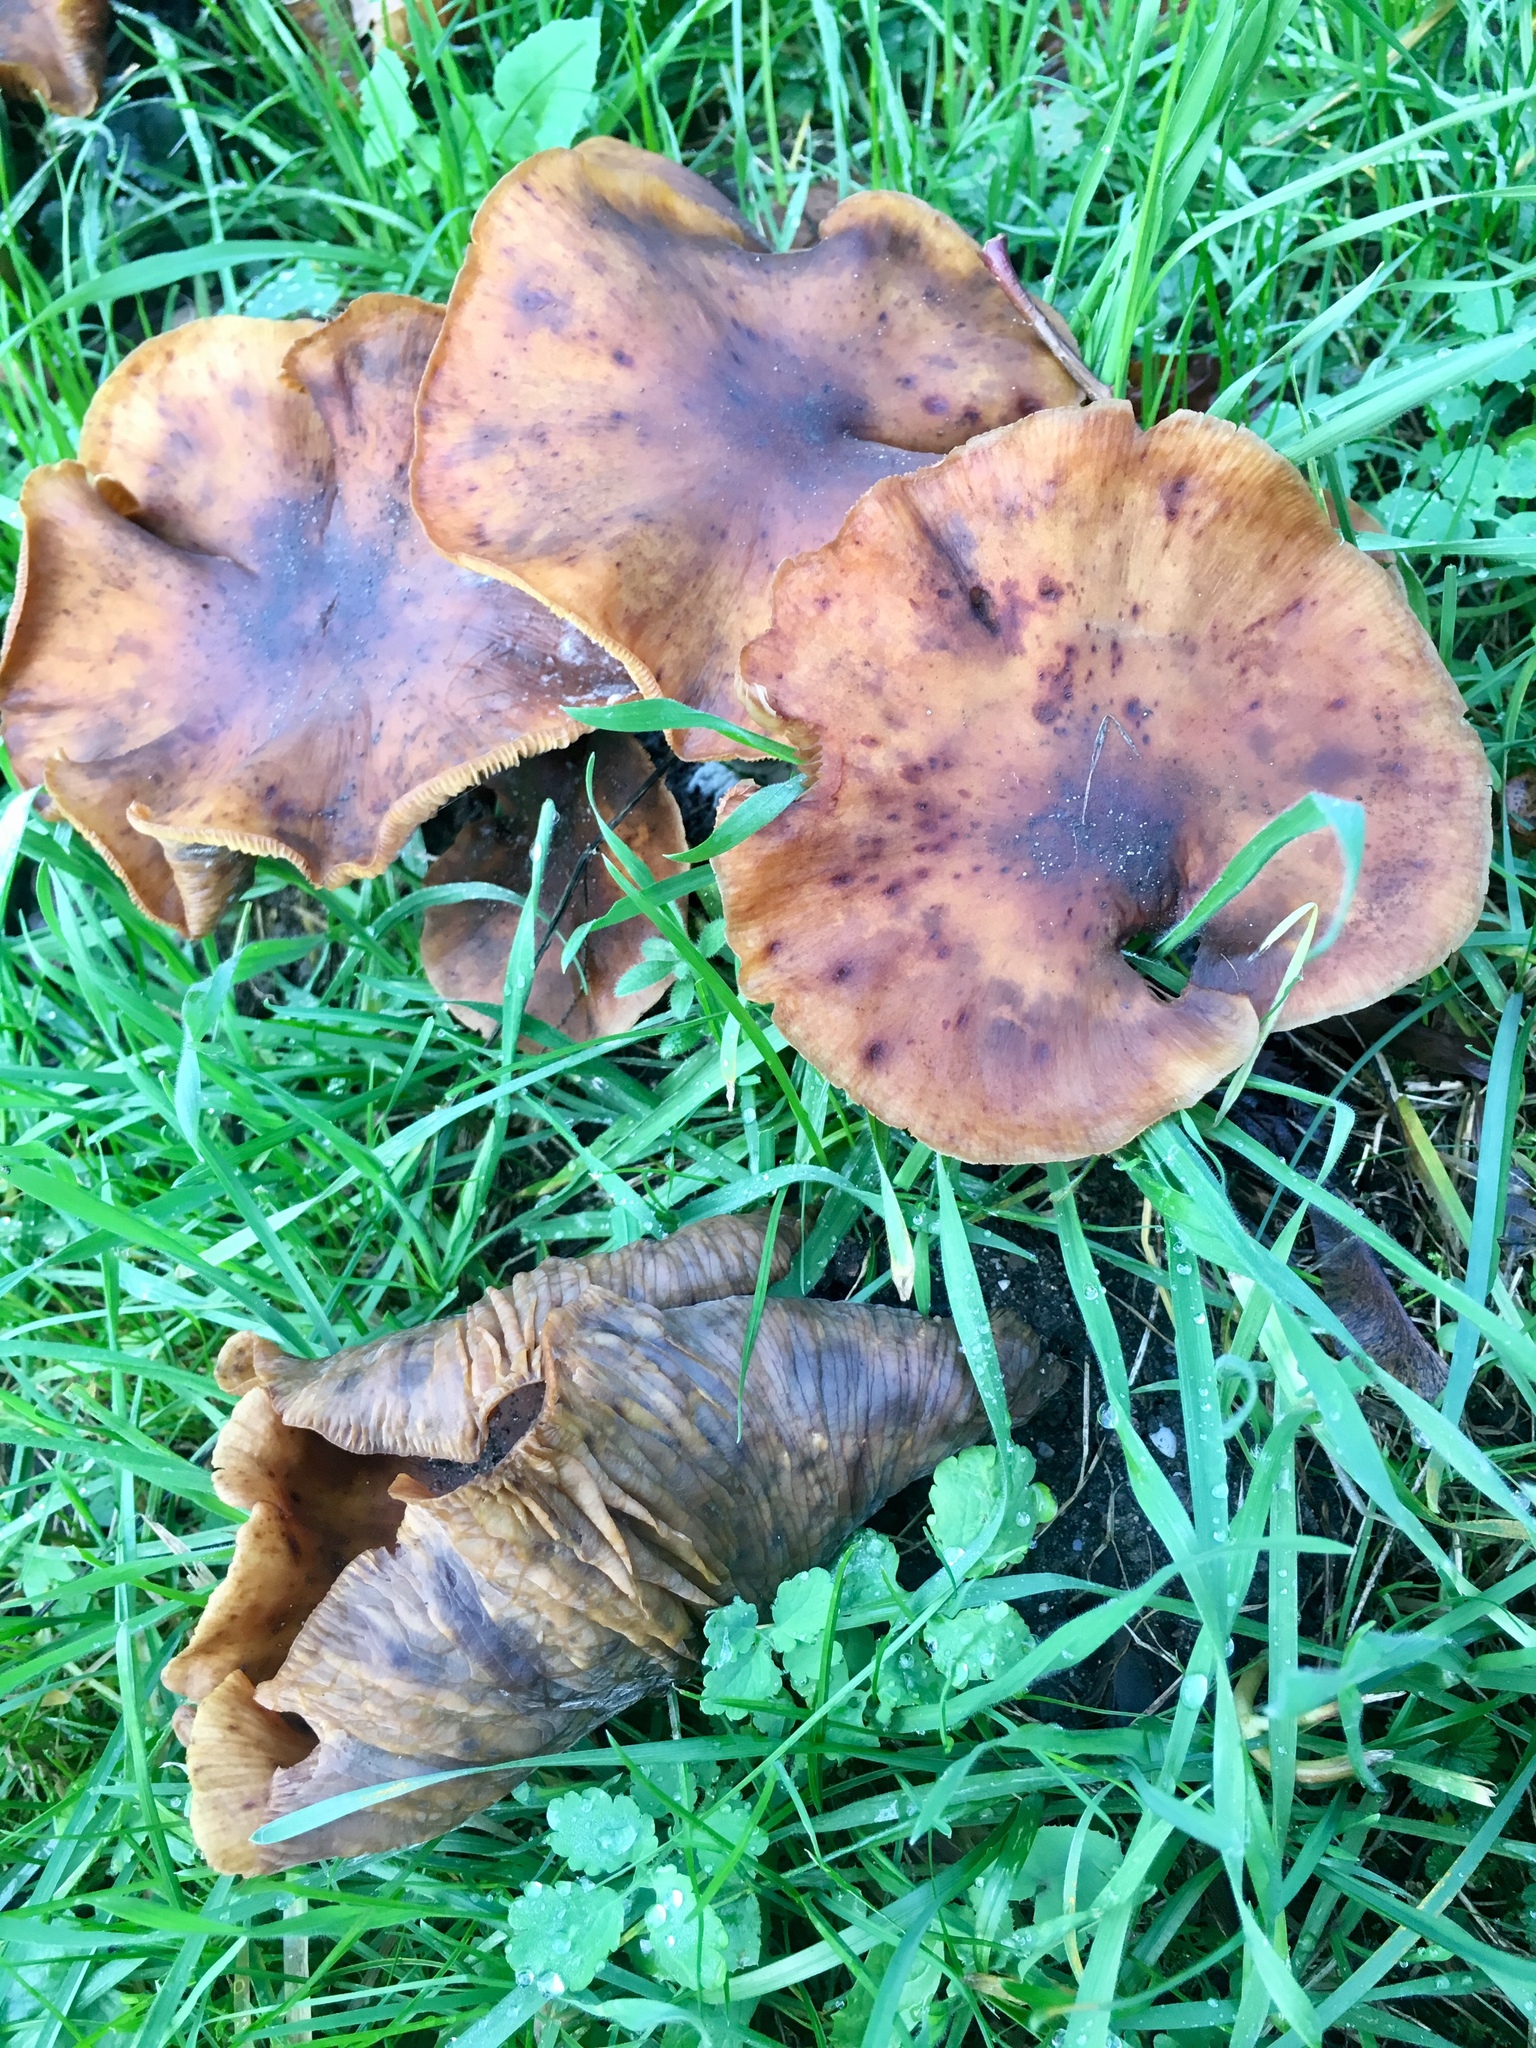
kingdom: Fungi
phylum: Basidiomycota
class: Agaricomycetes
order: Agaricales
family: Physalacriaceae
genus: Armillaria
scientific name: Armillaria mellea
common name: Honey fungus
